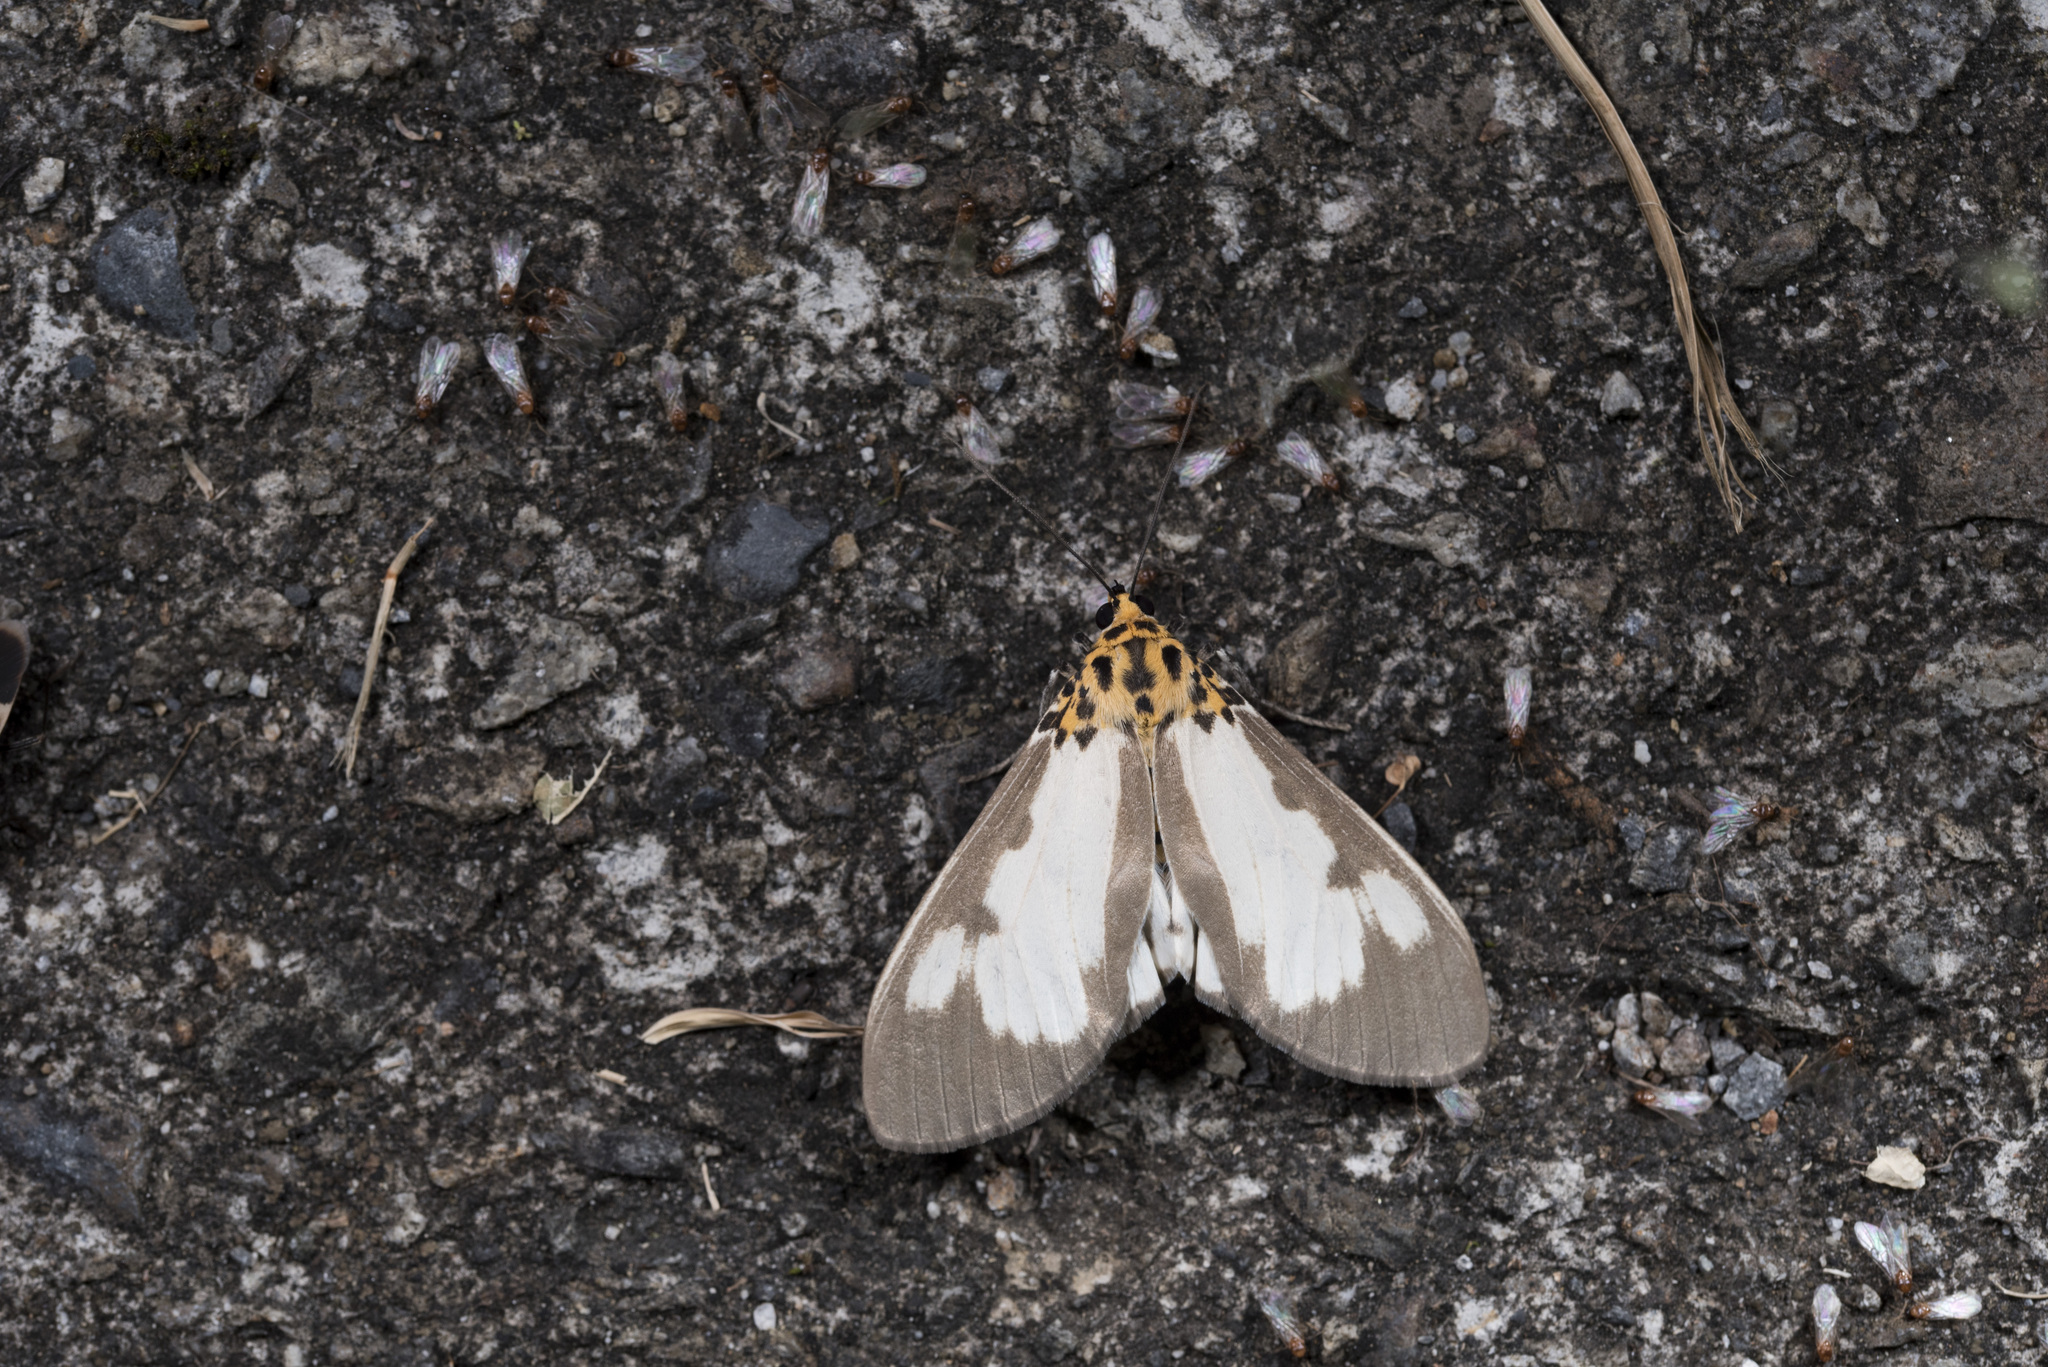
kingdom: Animalia
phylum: Arthropoda
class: Insecta
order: Lepidoptera
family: Erebidae
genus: Asota
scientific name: Asota plana
